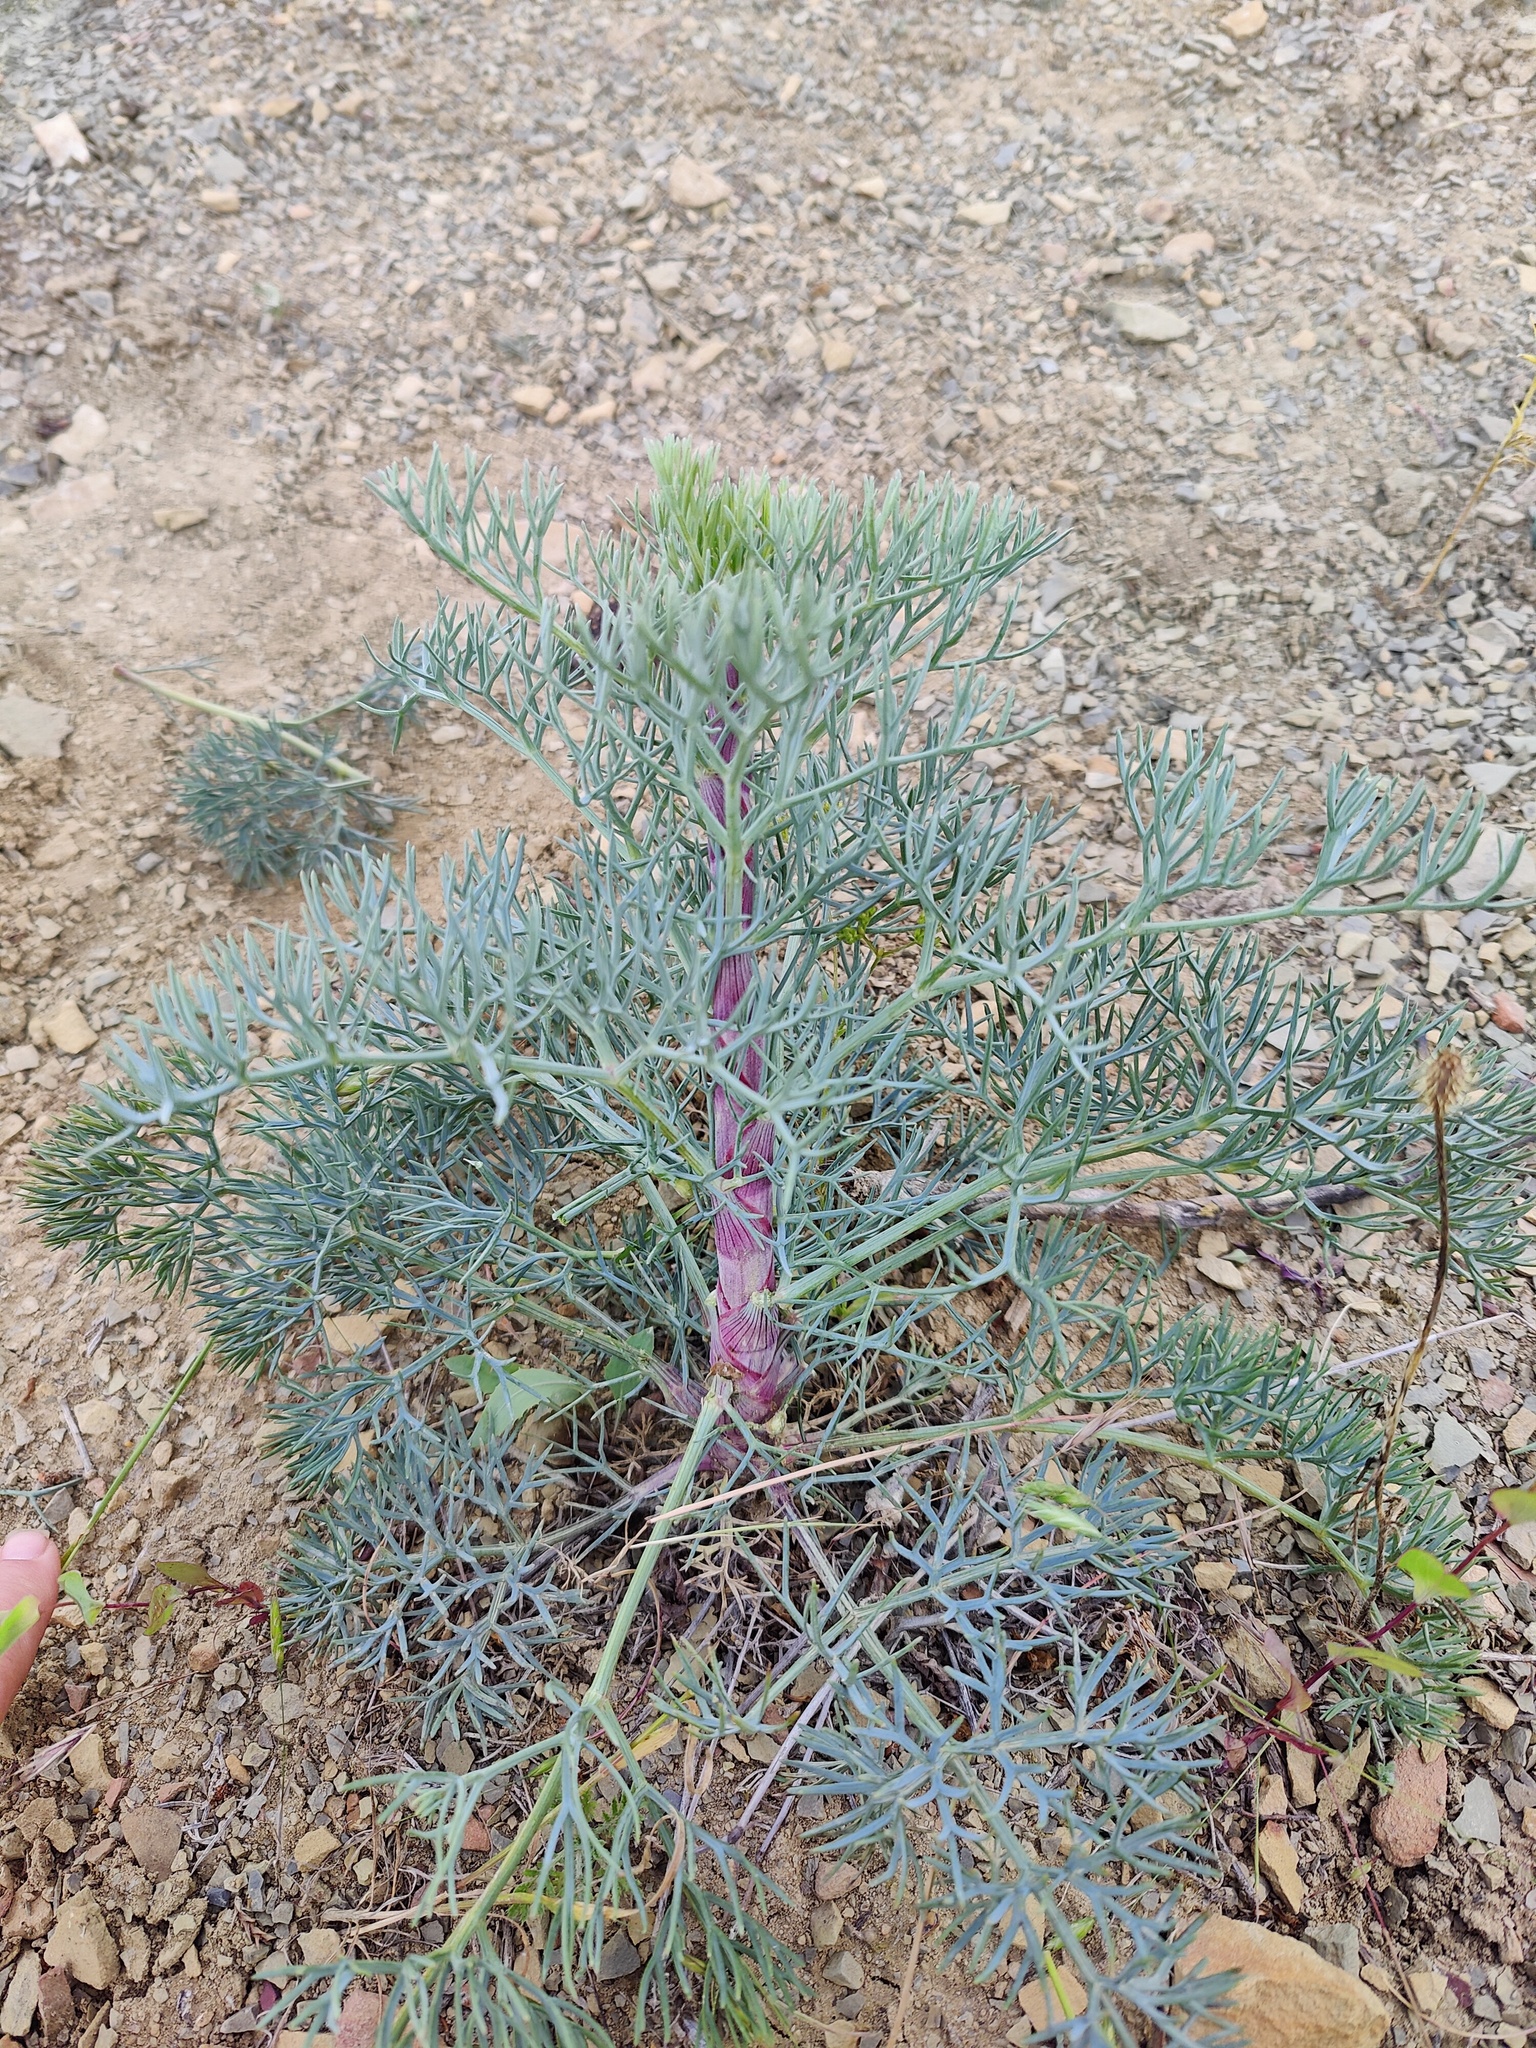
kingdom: Plantae
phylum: Tracheophyta
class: Magnoliopsida
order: Apiales
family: Apiaceae
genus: Seseli
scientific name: Seseli ponticum
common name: Pontic seseli
